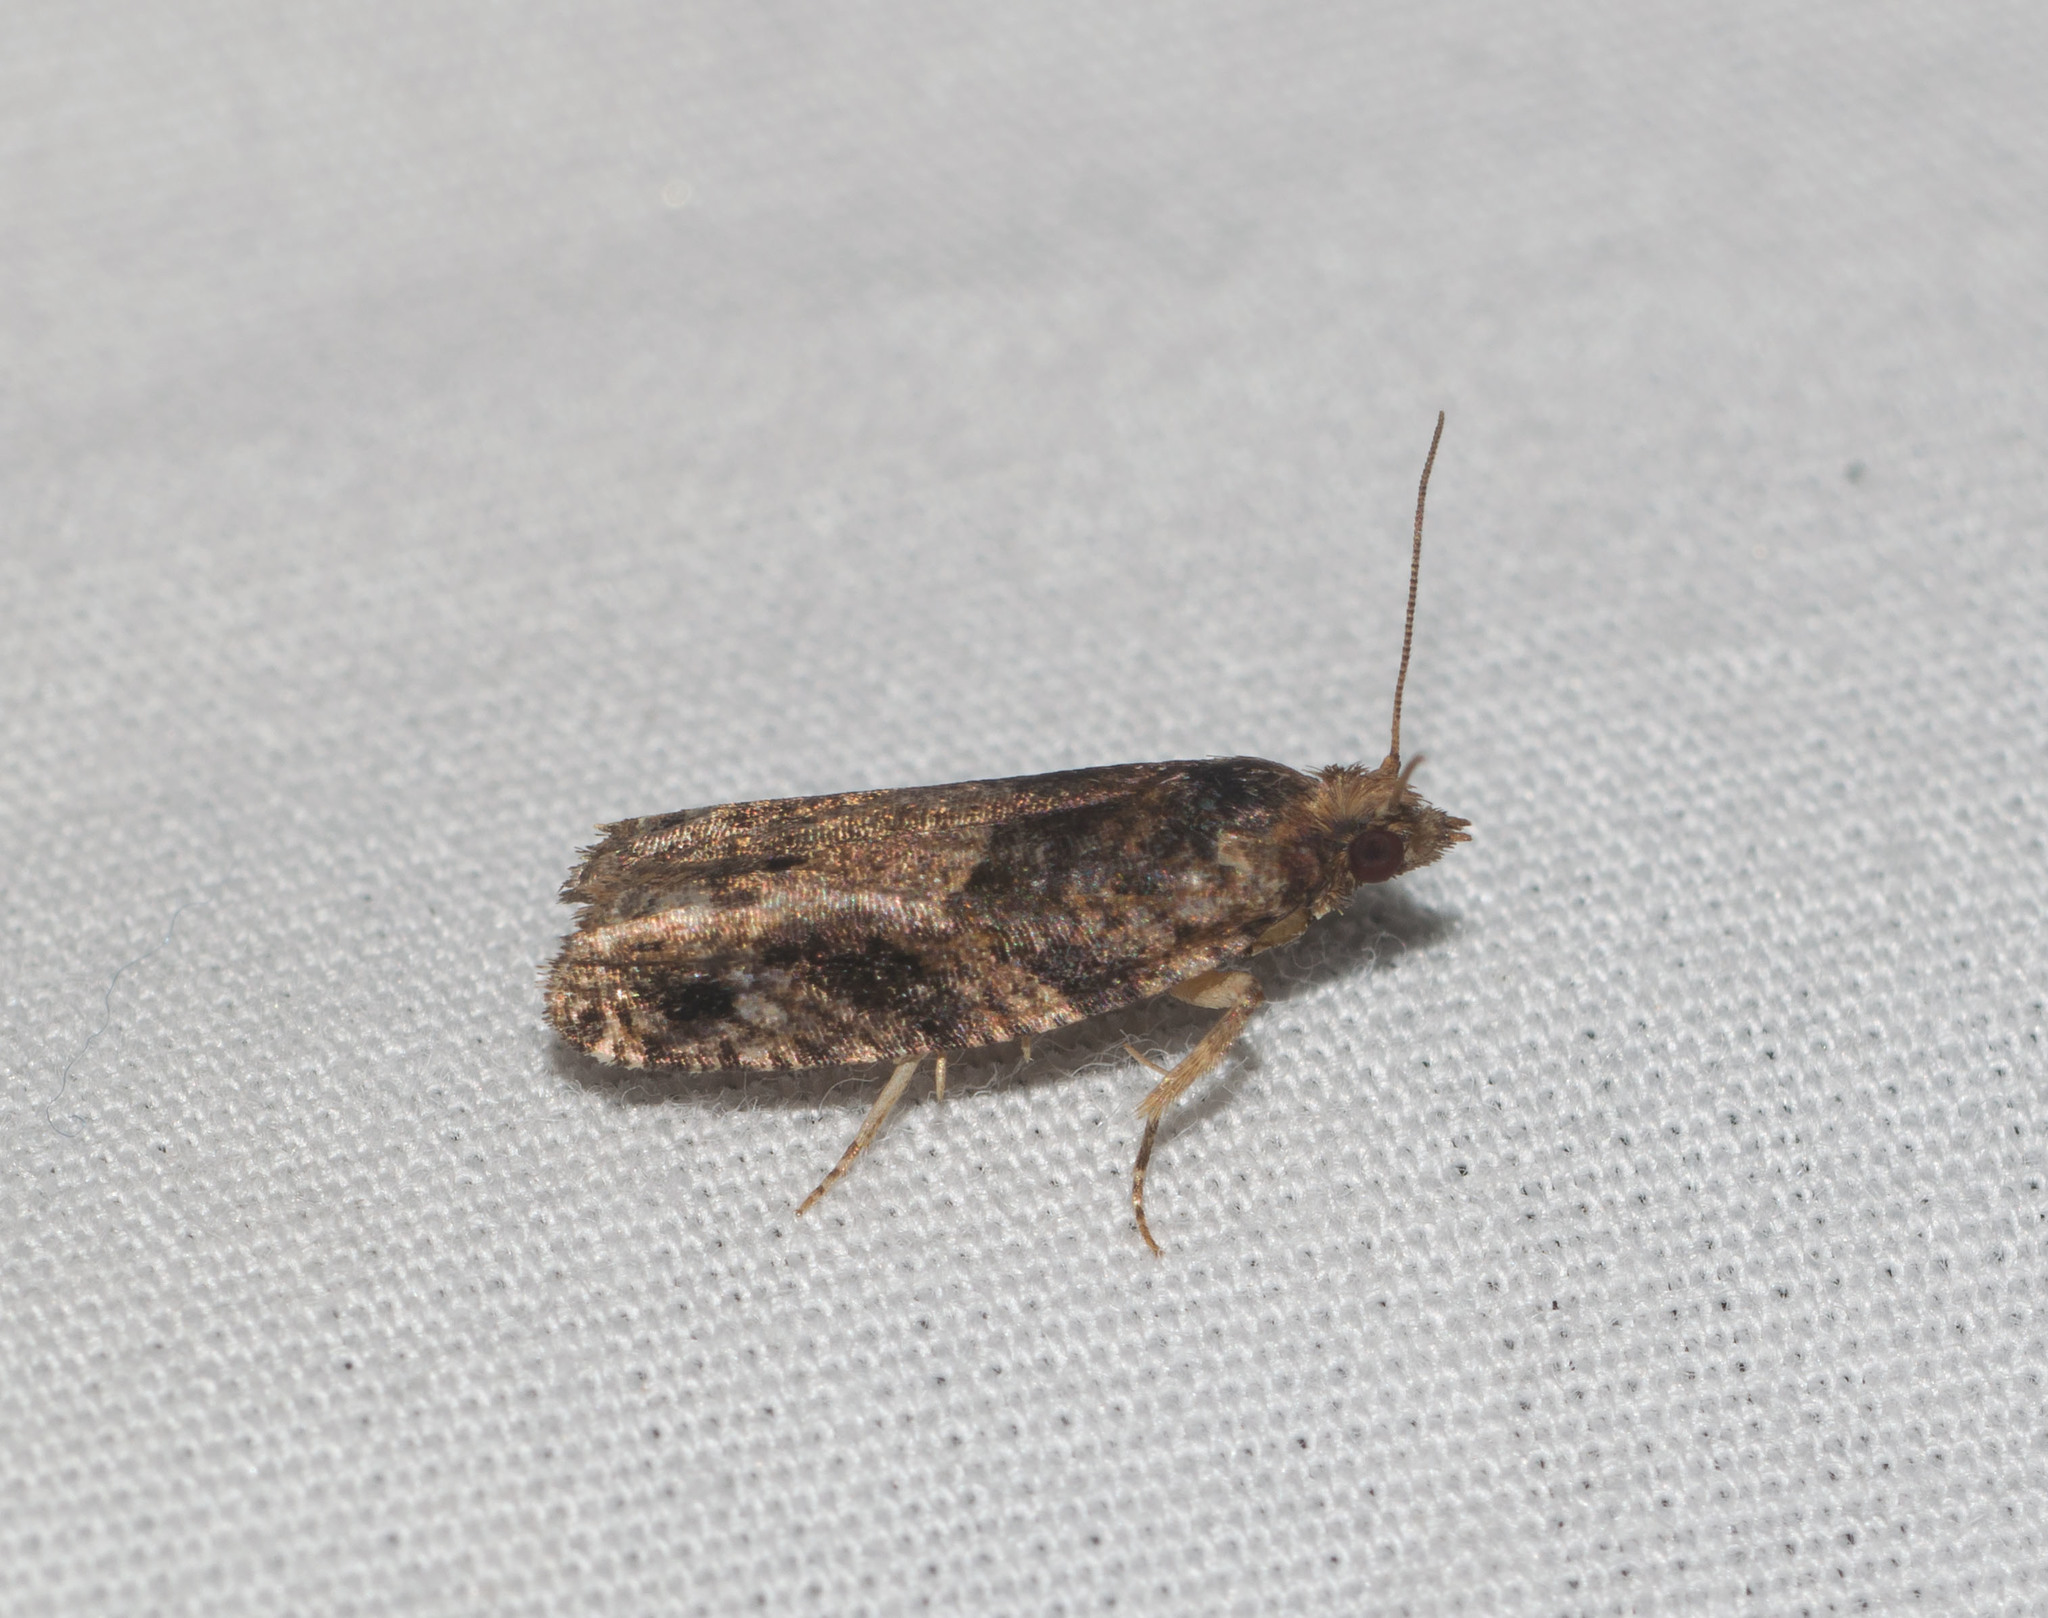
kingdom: Animalia
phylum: Arthropoda
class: Insecta
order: Lepidoptera
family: Tortricidae
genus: Crocidosema
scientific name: Crocidosema marcidellum
